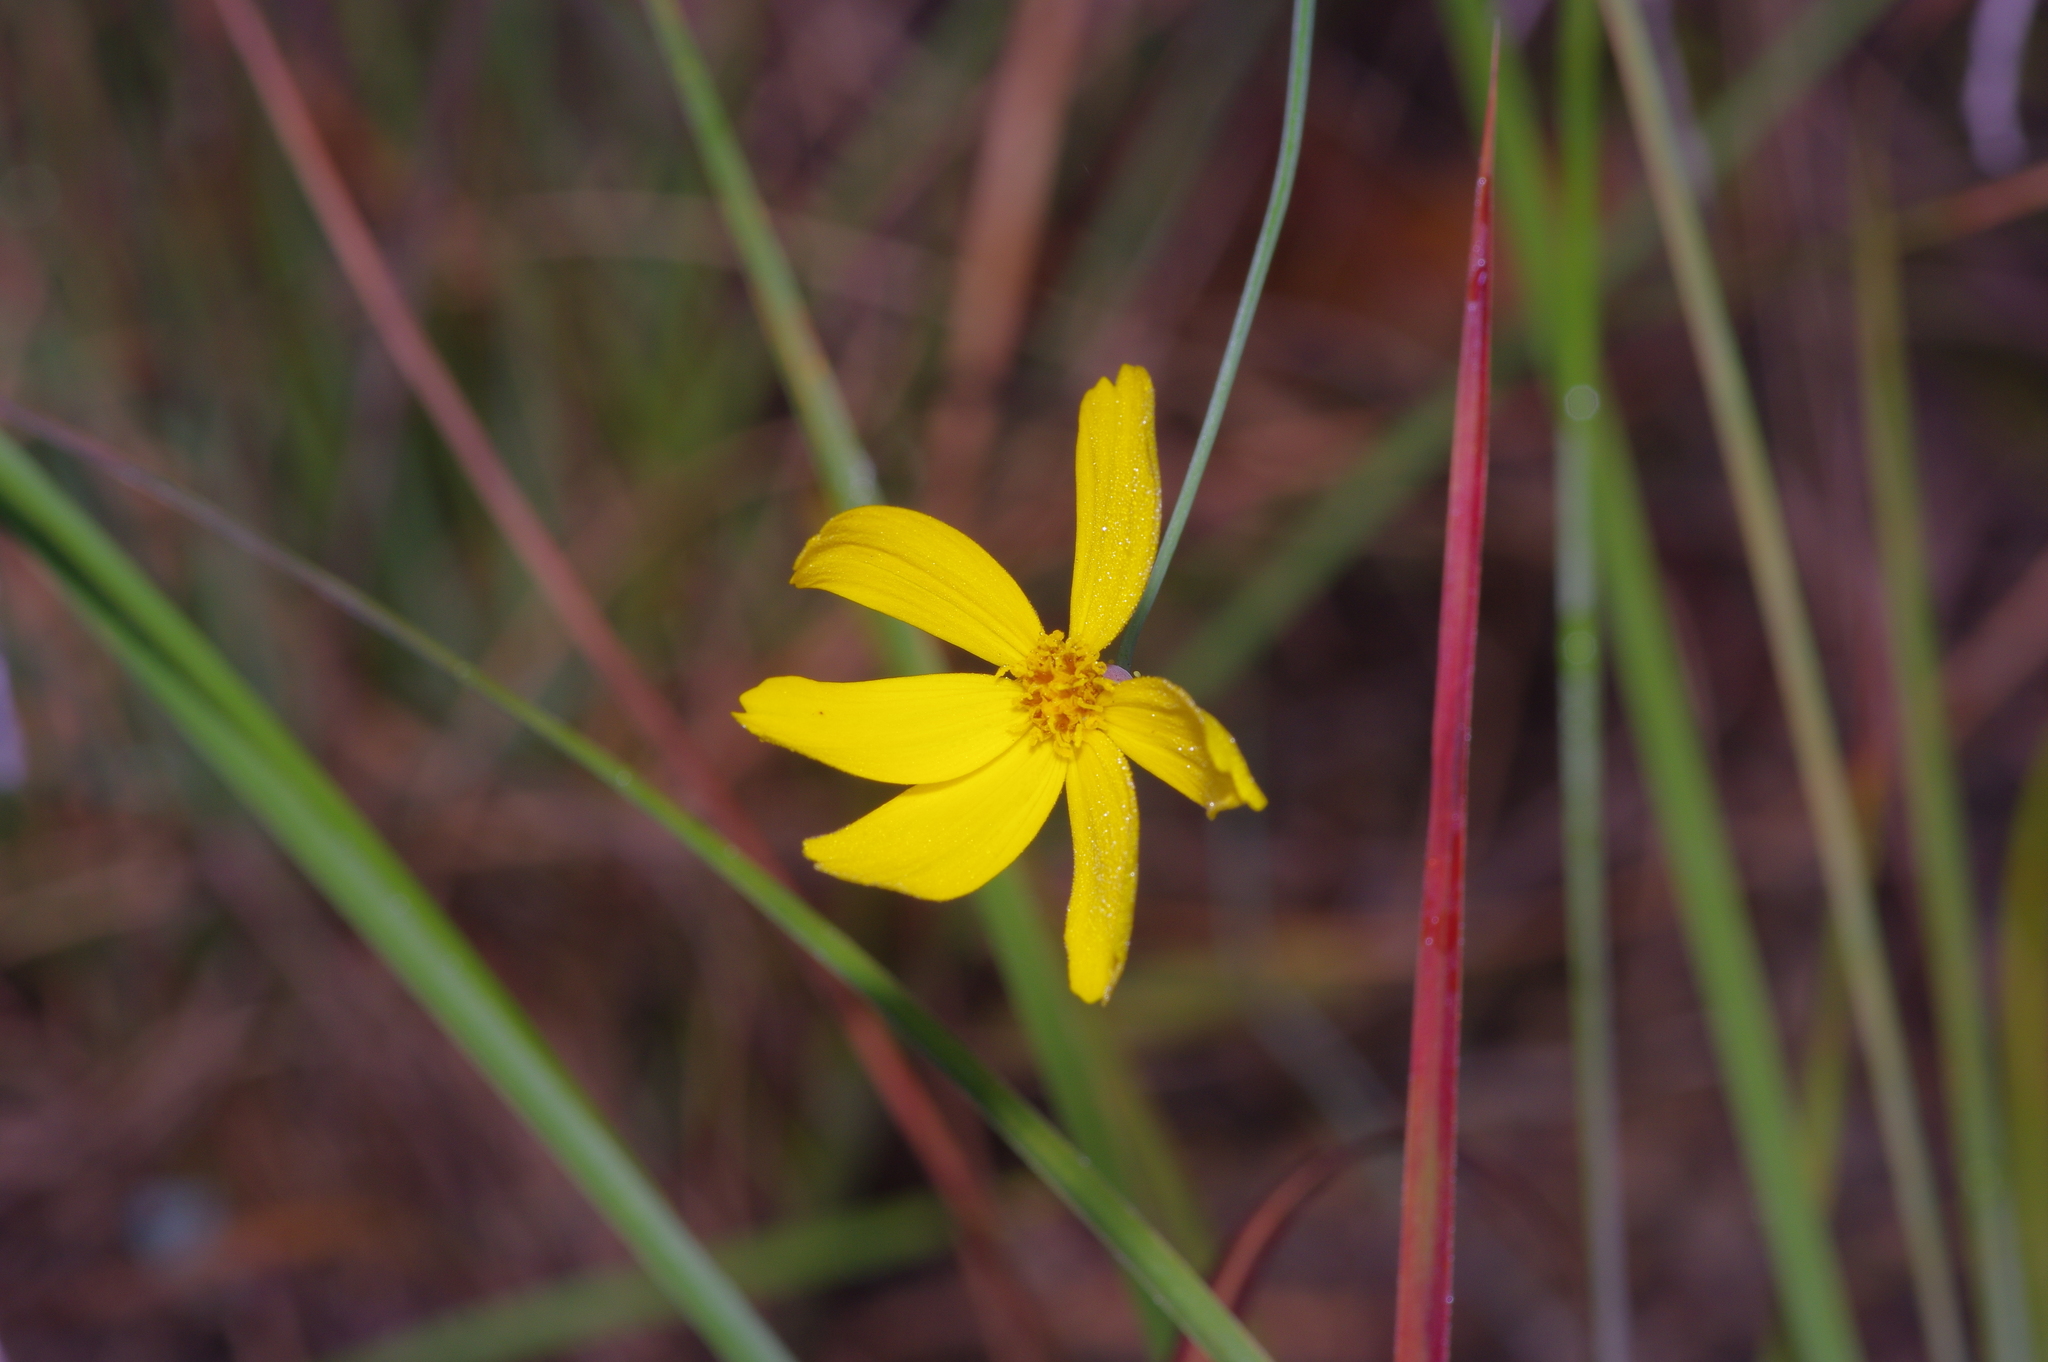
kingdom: Plantae
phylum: Tracheophyta
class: Magnoliopsida
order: Asterales
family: Asteraceae
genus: Thelesperma
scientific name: Thelesperma simplicifolium
